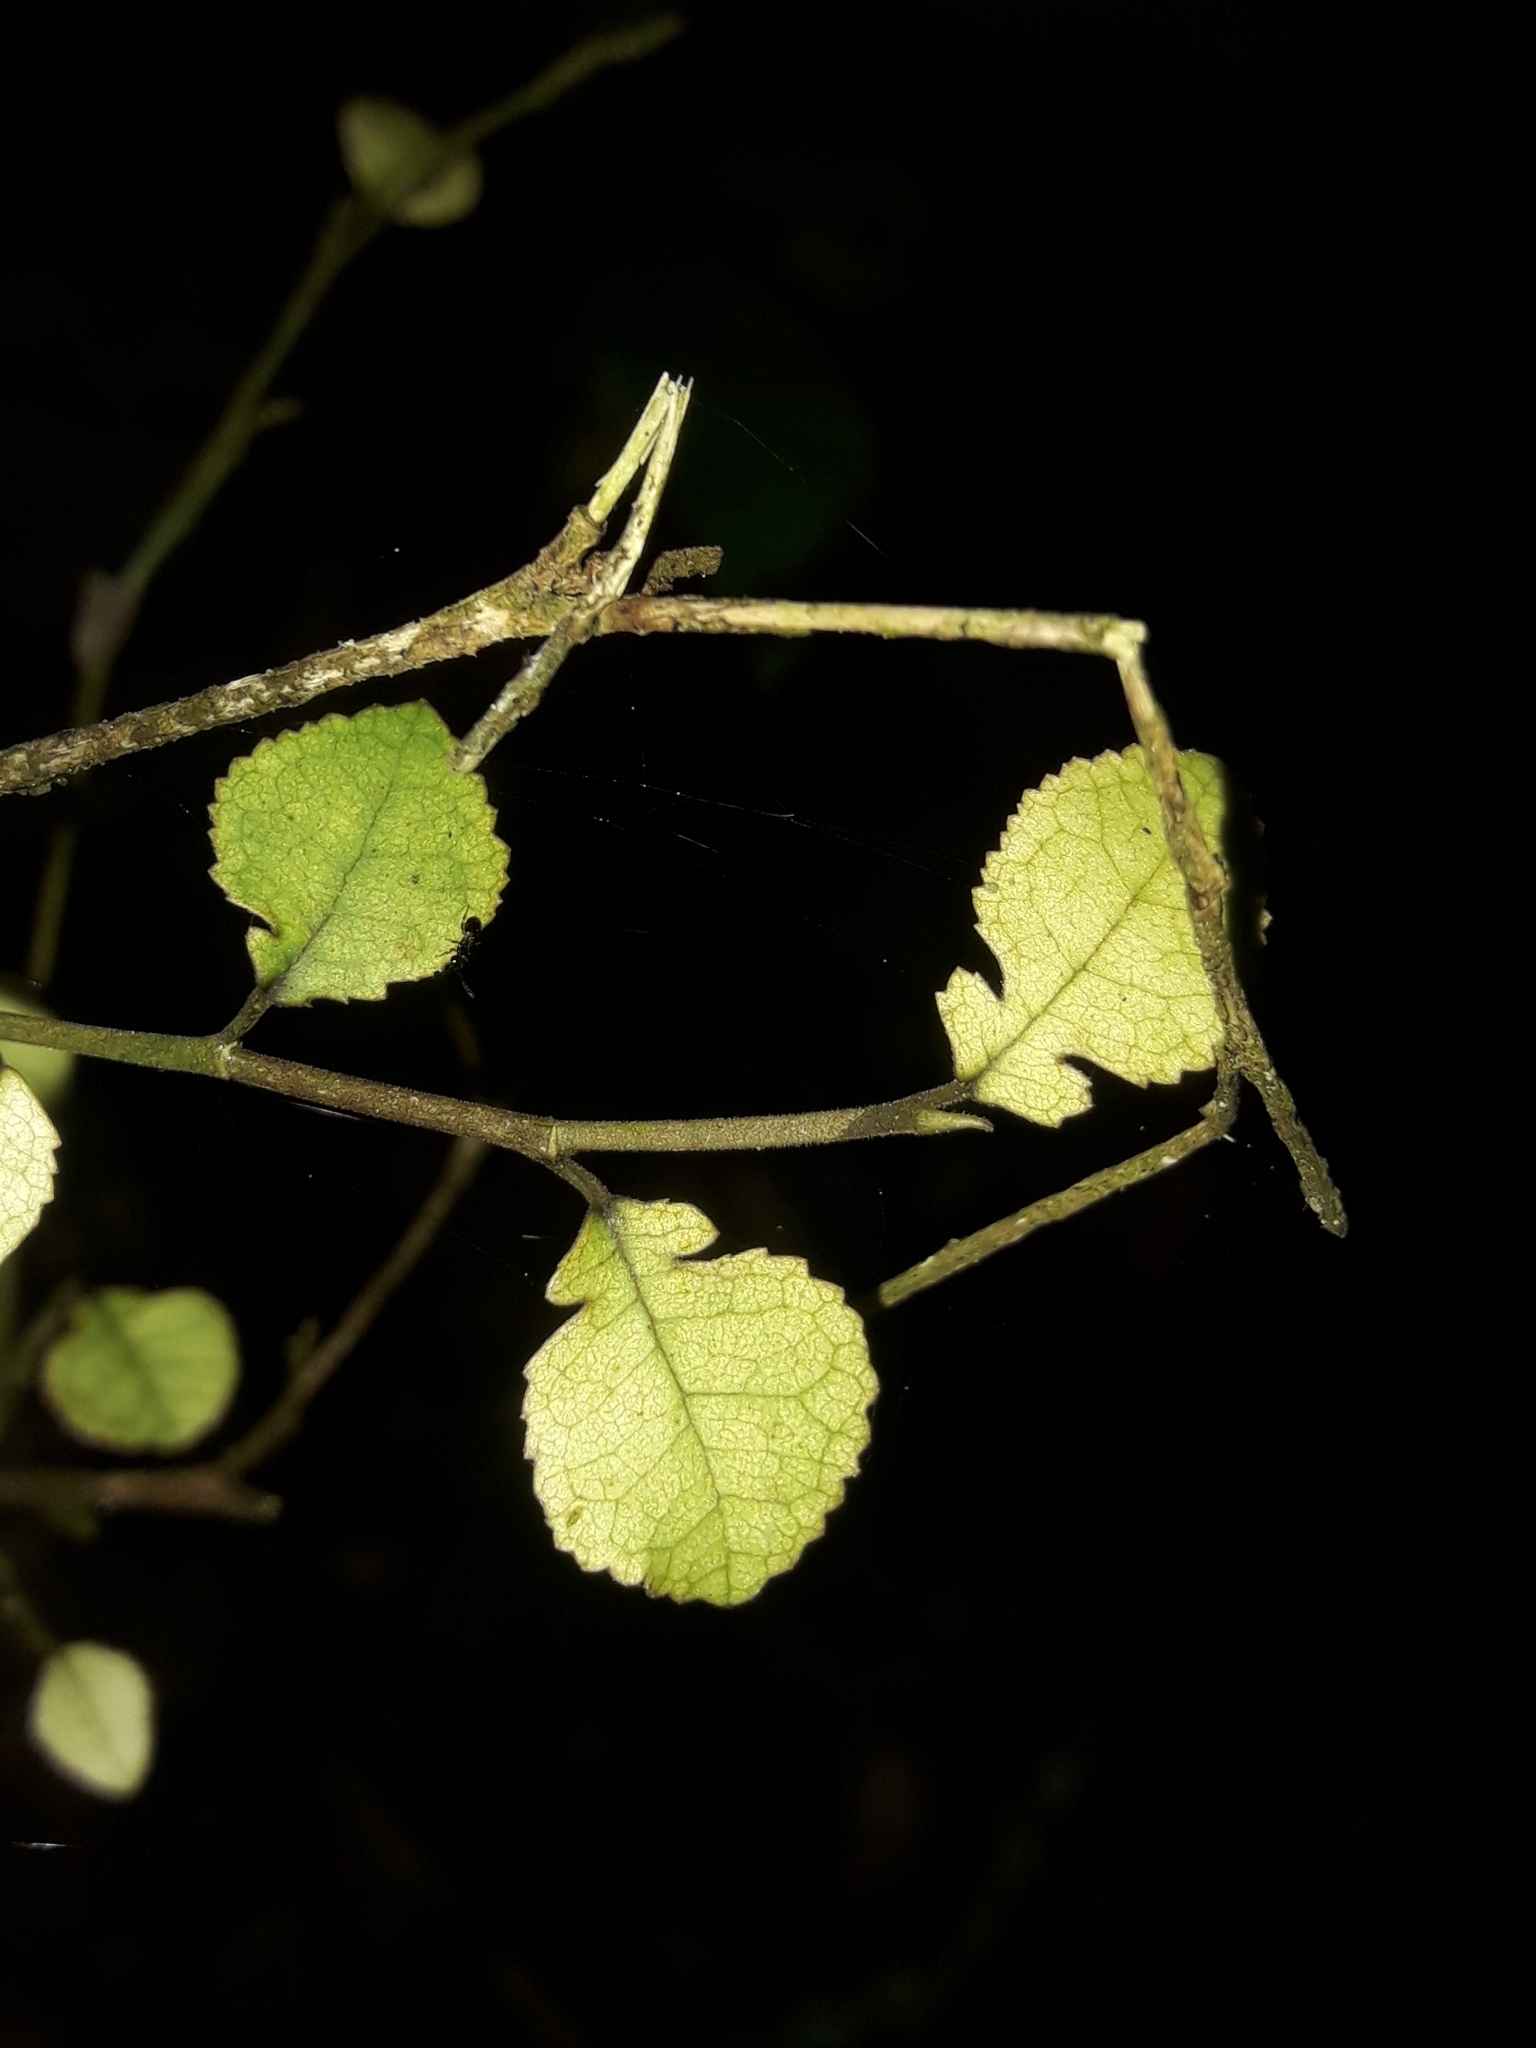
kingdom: Plantae
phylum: Tracheophyta
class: Magnoliopsida
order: Rosales
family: Moraceae
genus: Paratrophis
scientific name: Paratrophis microphylla
